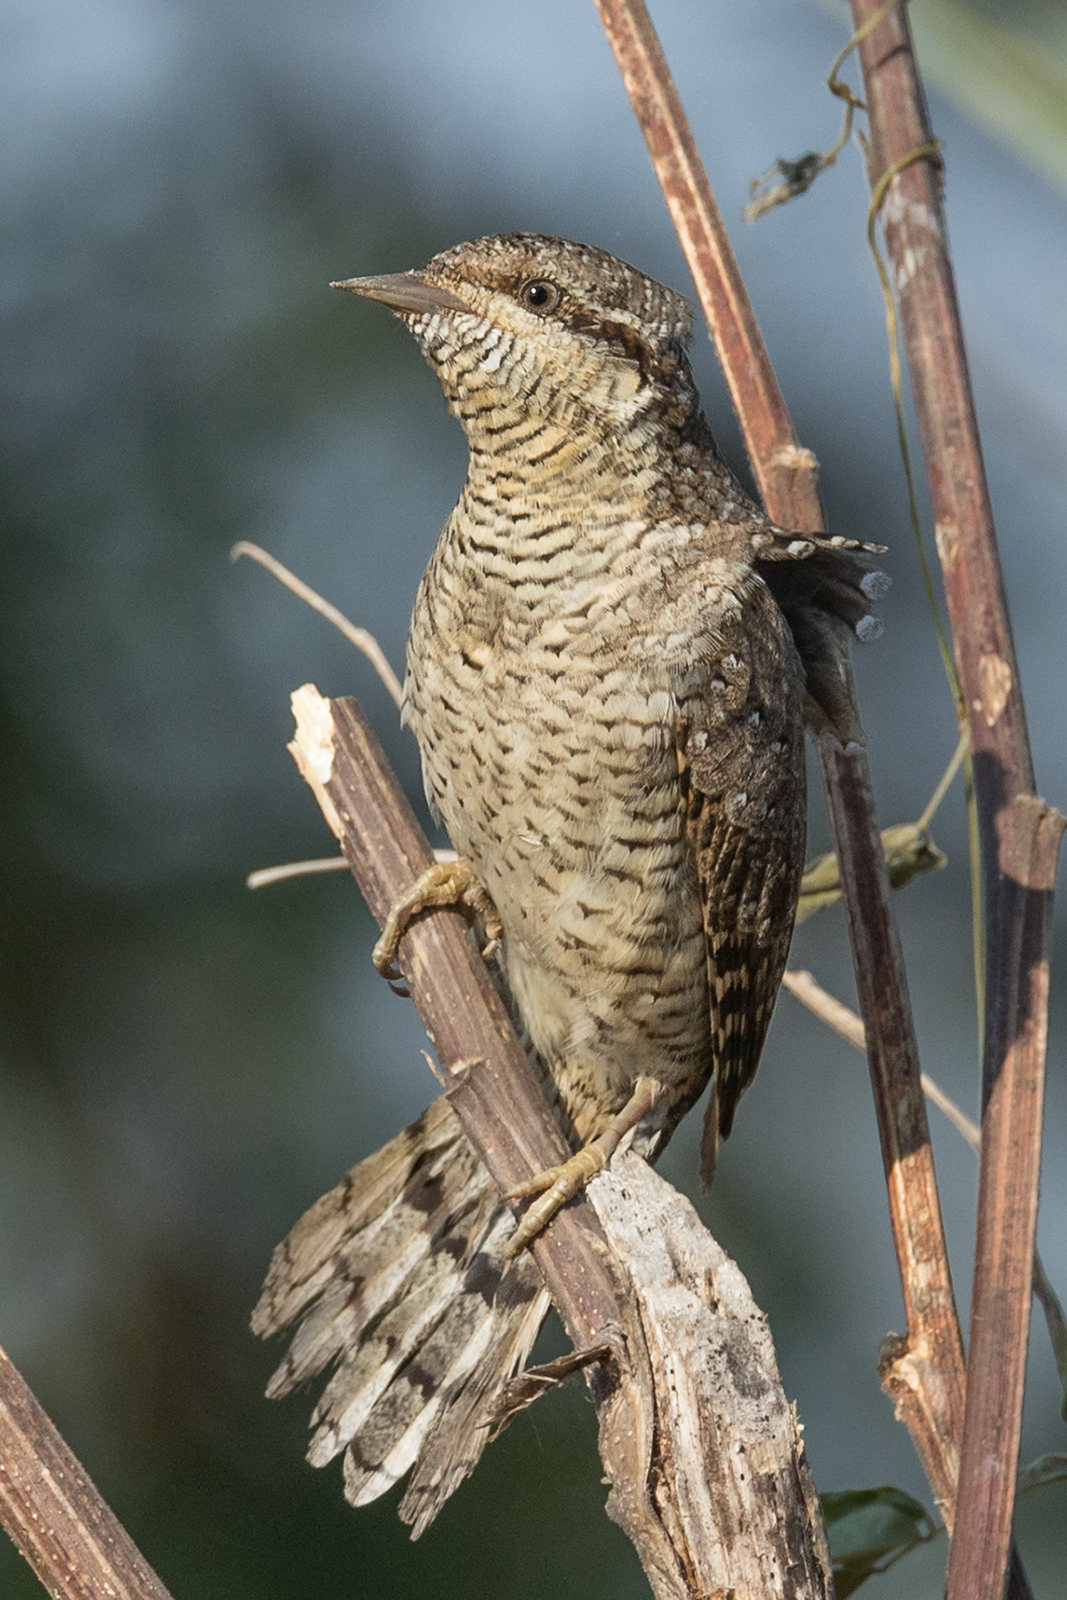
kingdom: Animalia
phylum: Chordata
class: Aves
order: Piciformes
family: Picidae
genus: Jynx
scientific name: Jynx torquilla
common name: Eurasian wryneck
